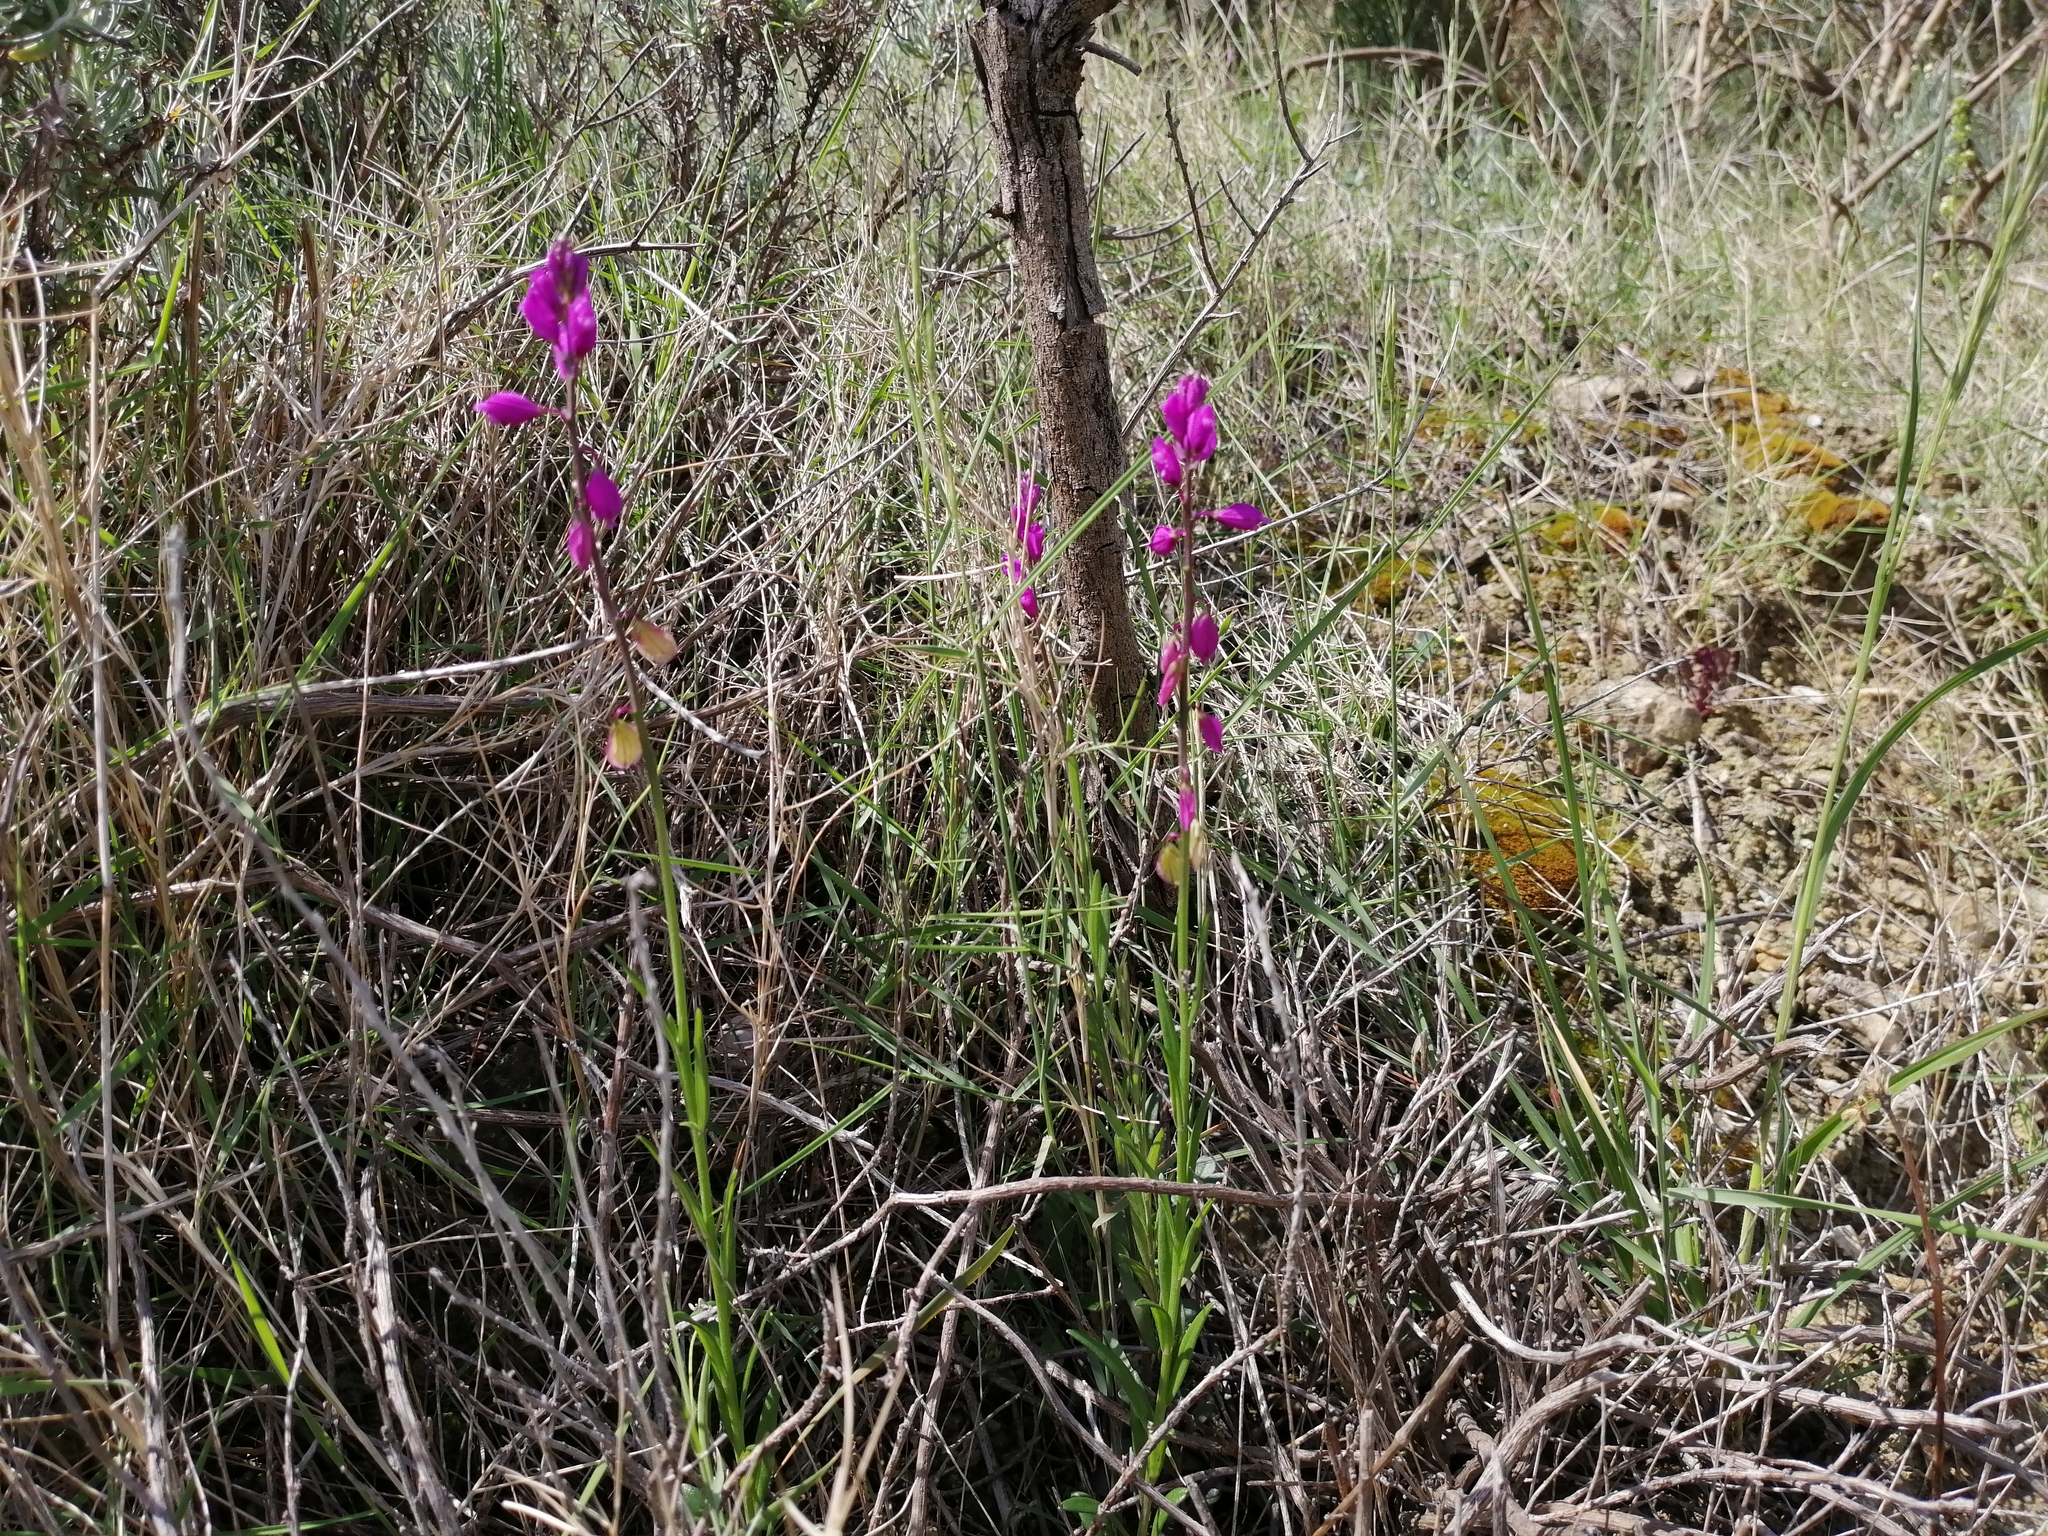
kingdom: Plantae
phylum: Tracheophyta
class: Magnoliopsida
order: Fabales
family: Polygalaceae
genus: Polygala
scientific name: Polygala nicaeensis
